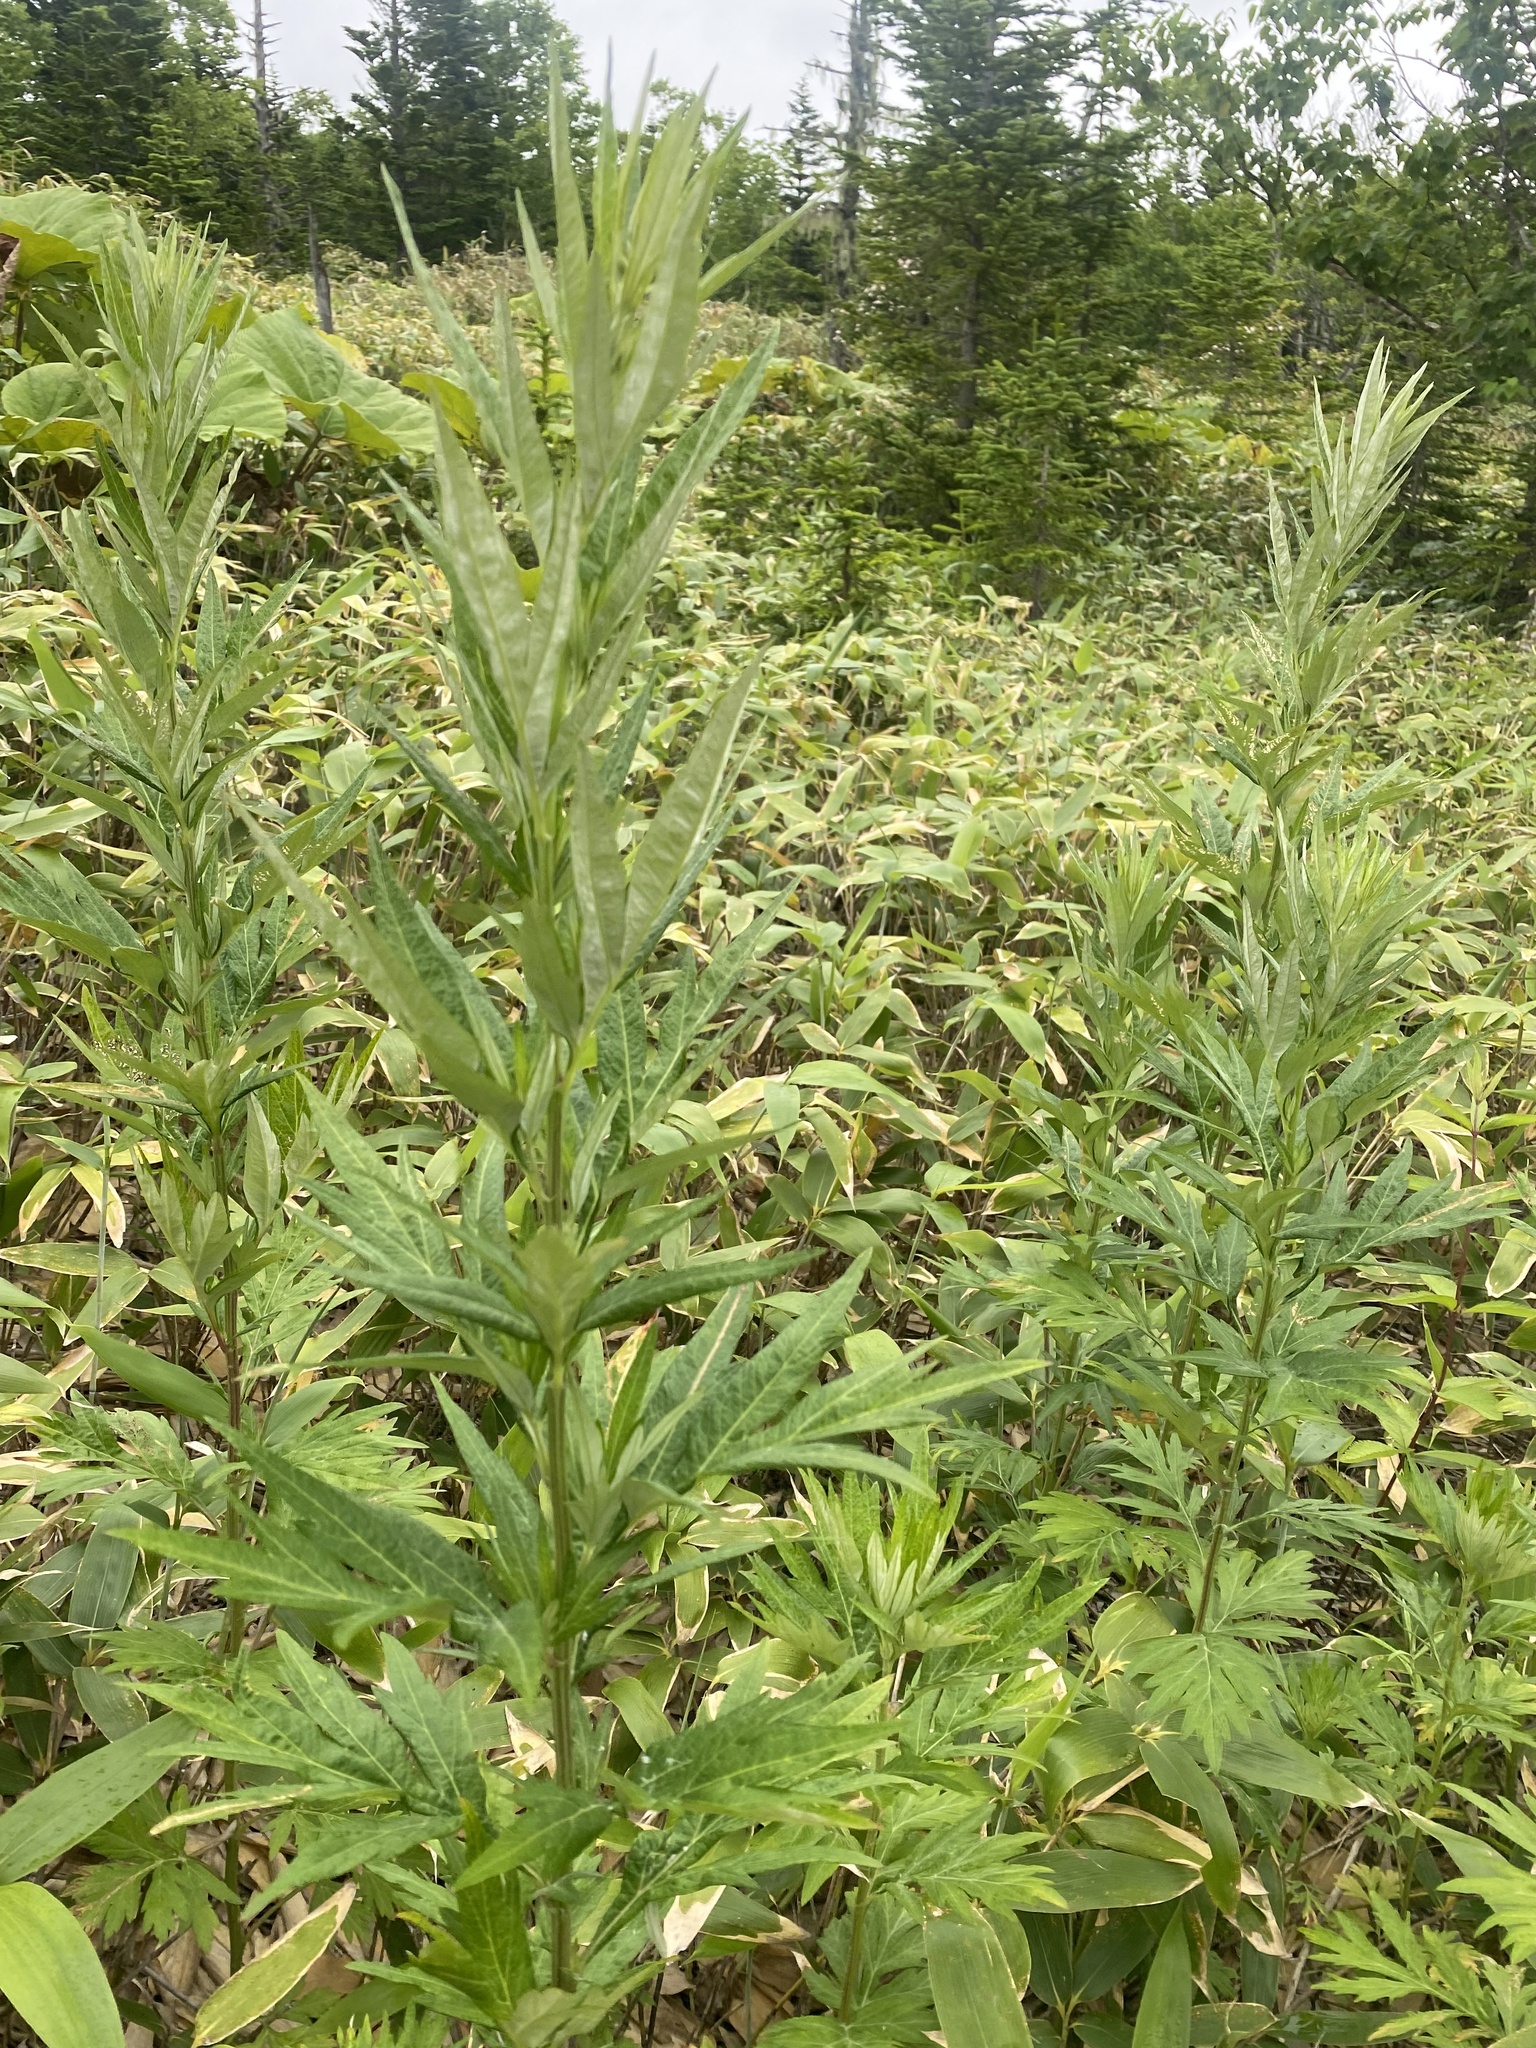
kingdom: Plantae
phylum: Tracheophyta
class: Magnoliopsida
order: Asterales
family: Asteraceae
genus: Jacobaea
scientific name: Jacobaea cannabifolia
